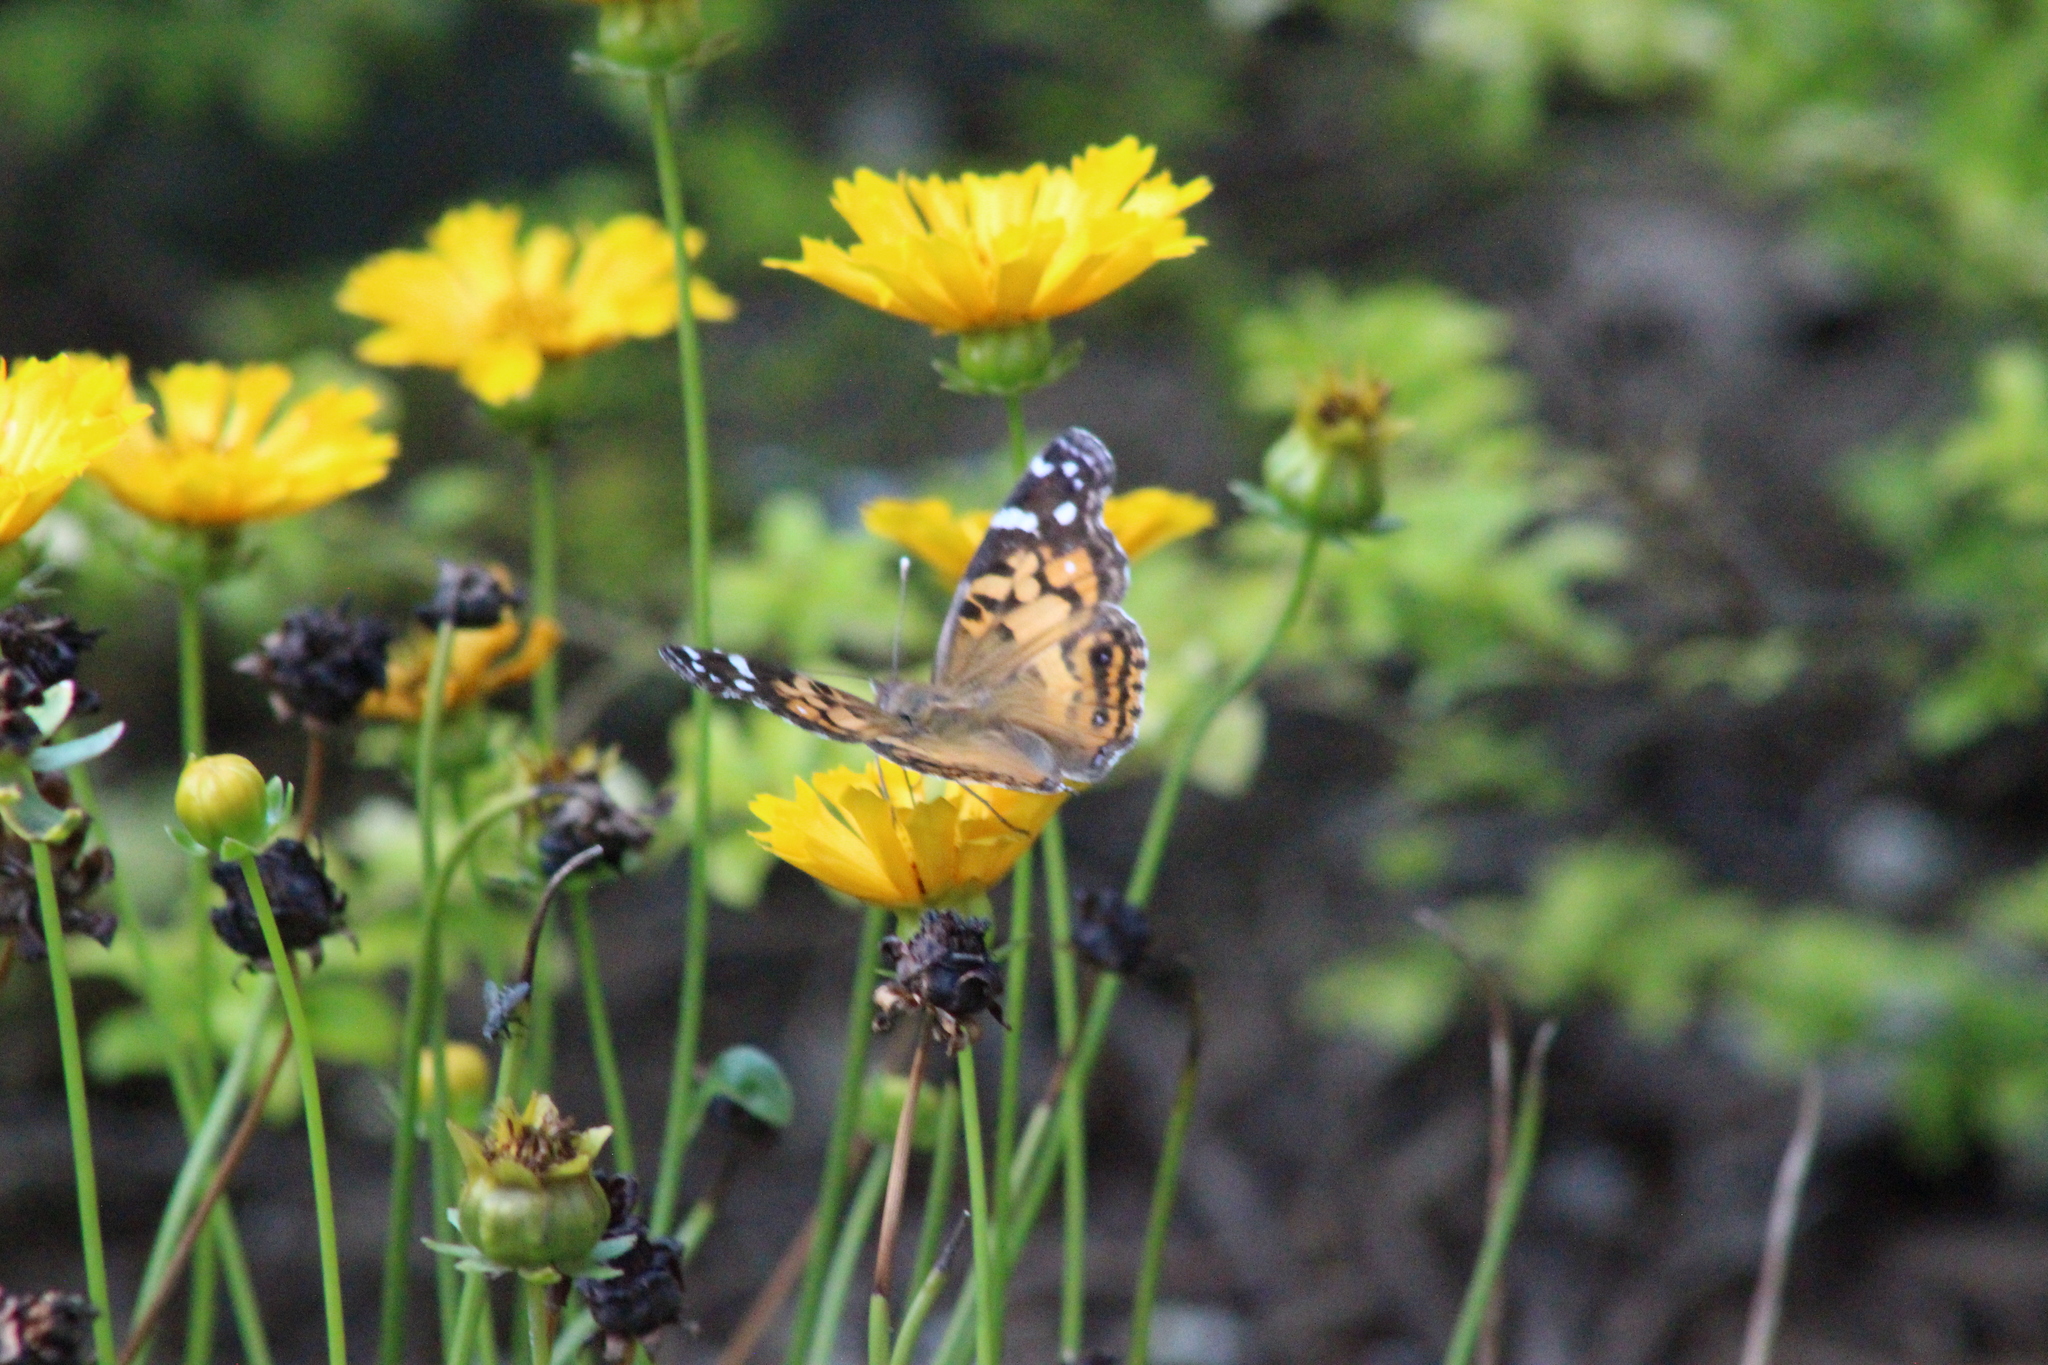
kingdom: Animalia
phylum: Arthropoda
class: Insecta
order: Lepidoptera
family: Nymphalidae
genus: Vanessa
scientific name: Vanessa virginiensis
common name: American lady
